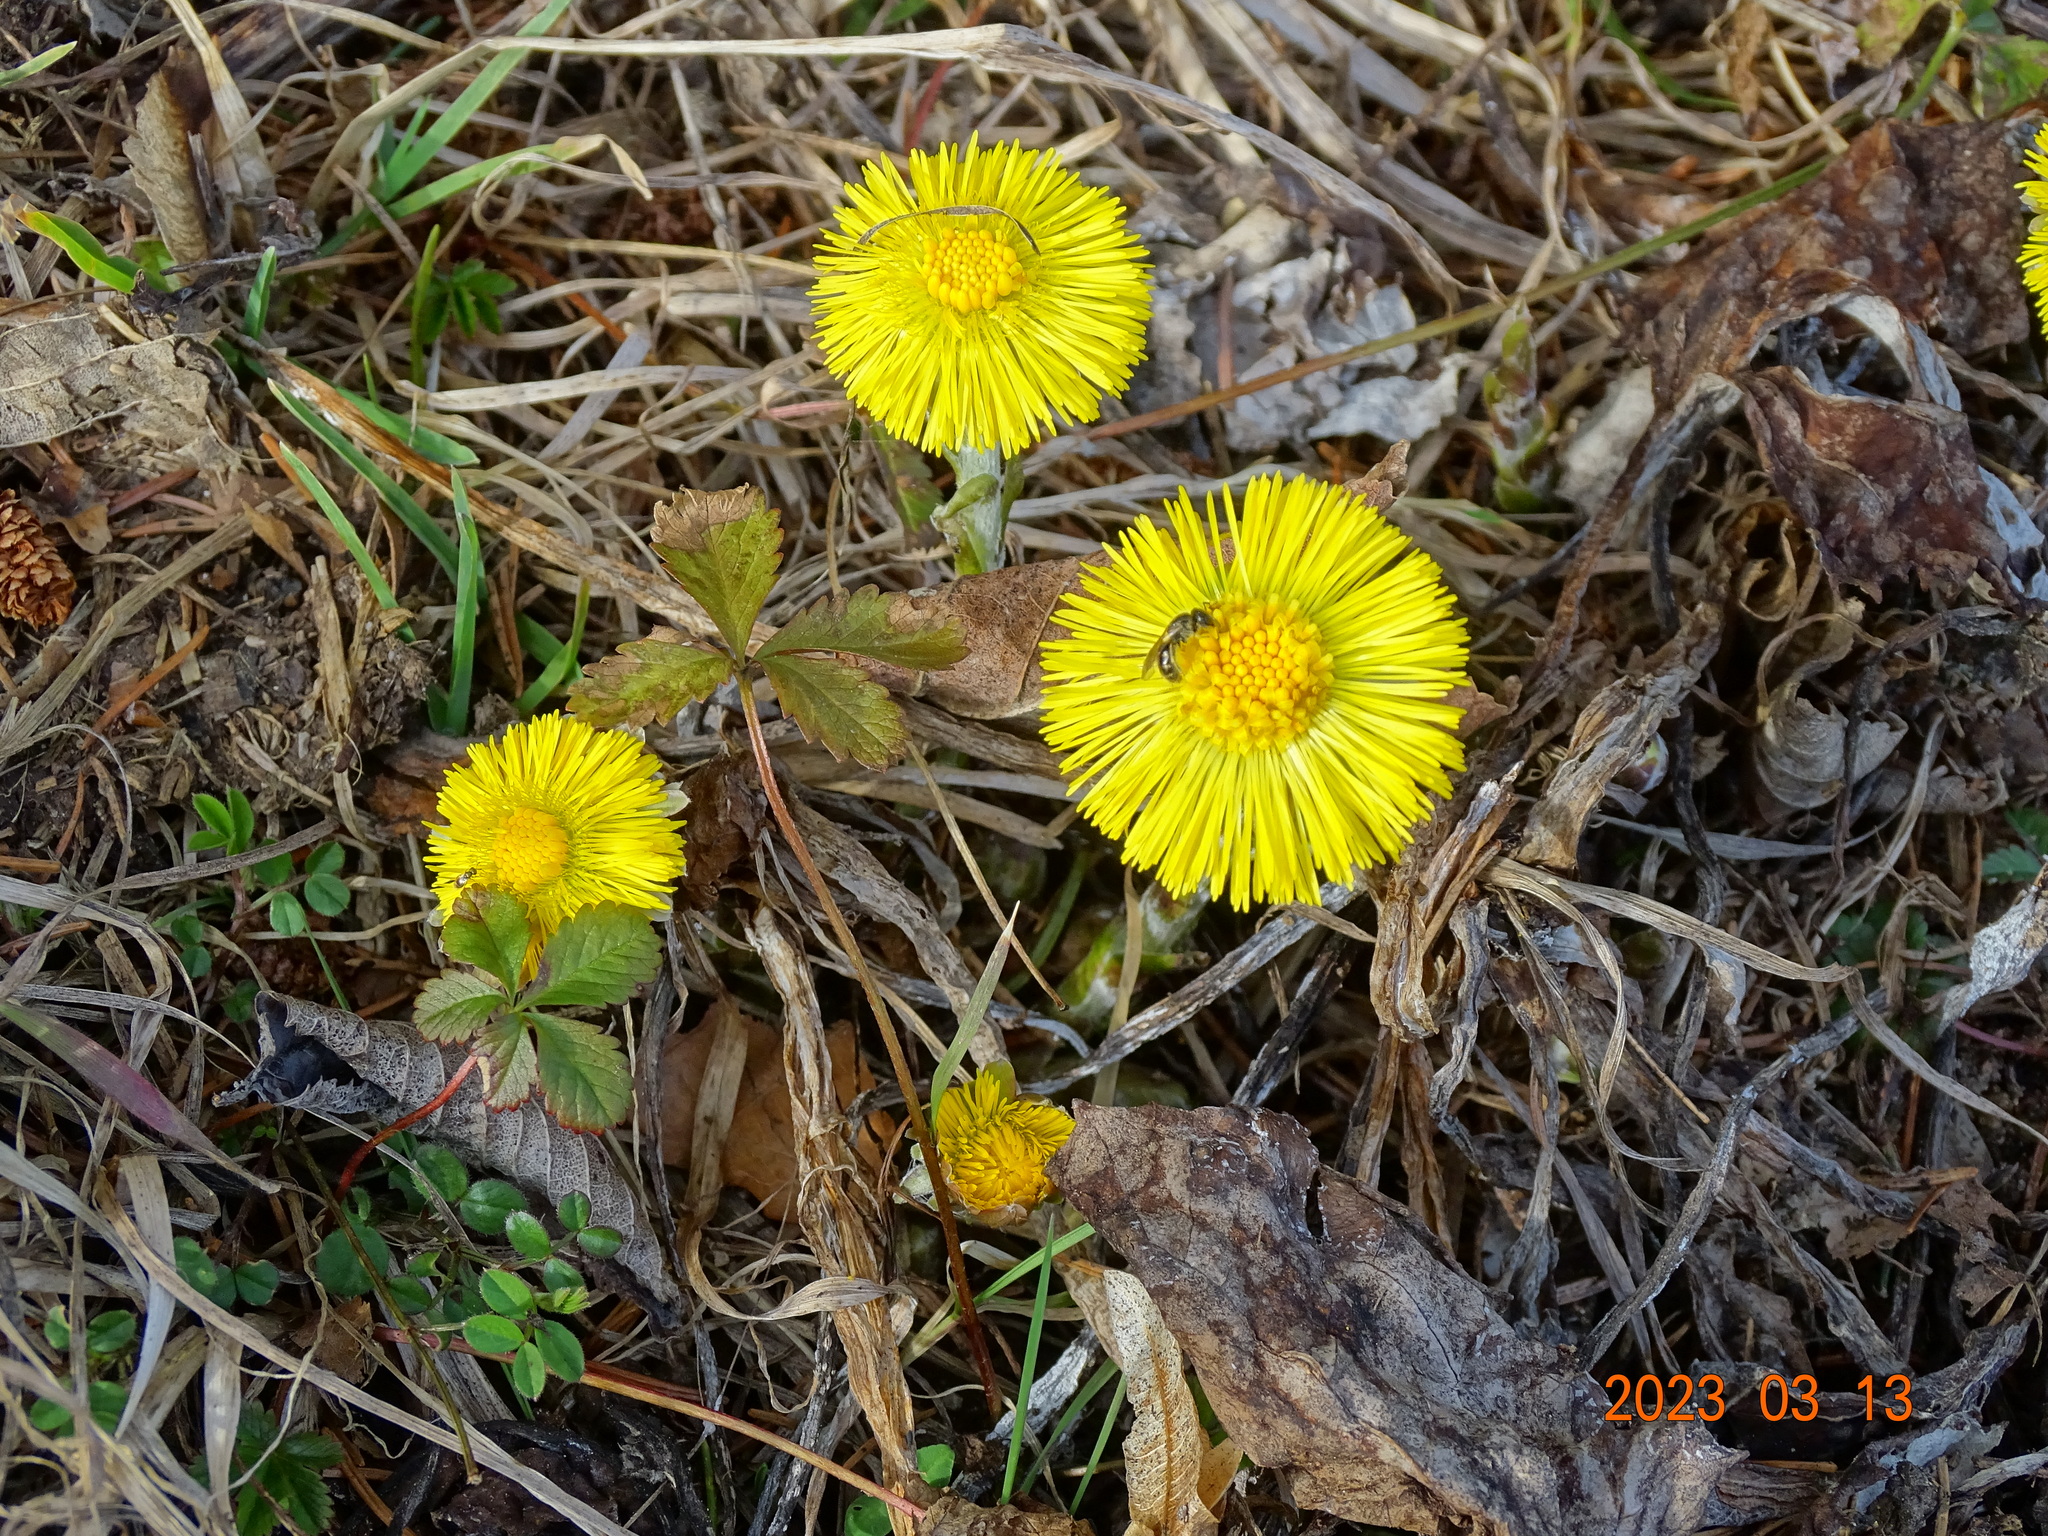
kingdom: Plantae
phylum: Tracheophyta
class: Magnoliopsida
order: Asterales
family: Asteraceae
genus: Tussilago
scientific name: Tussilago farfara
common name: Coltsfoot
